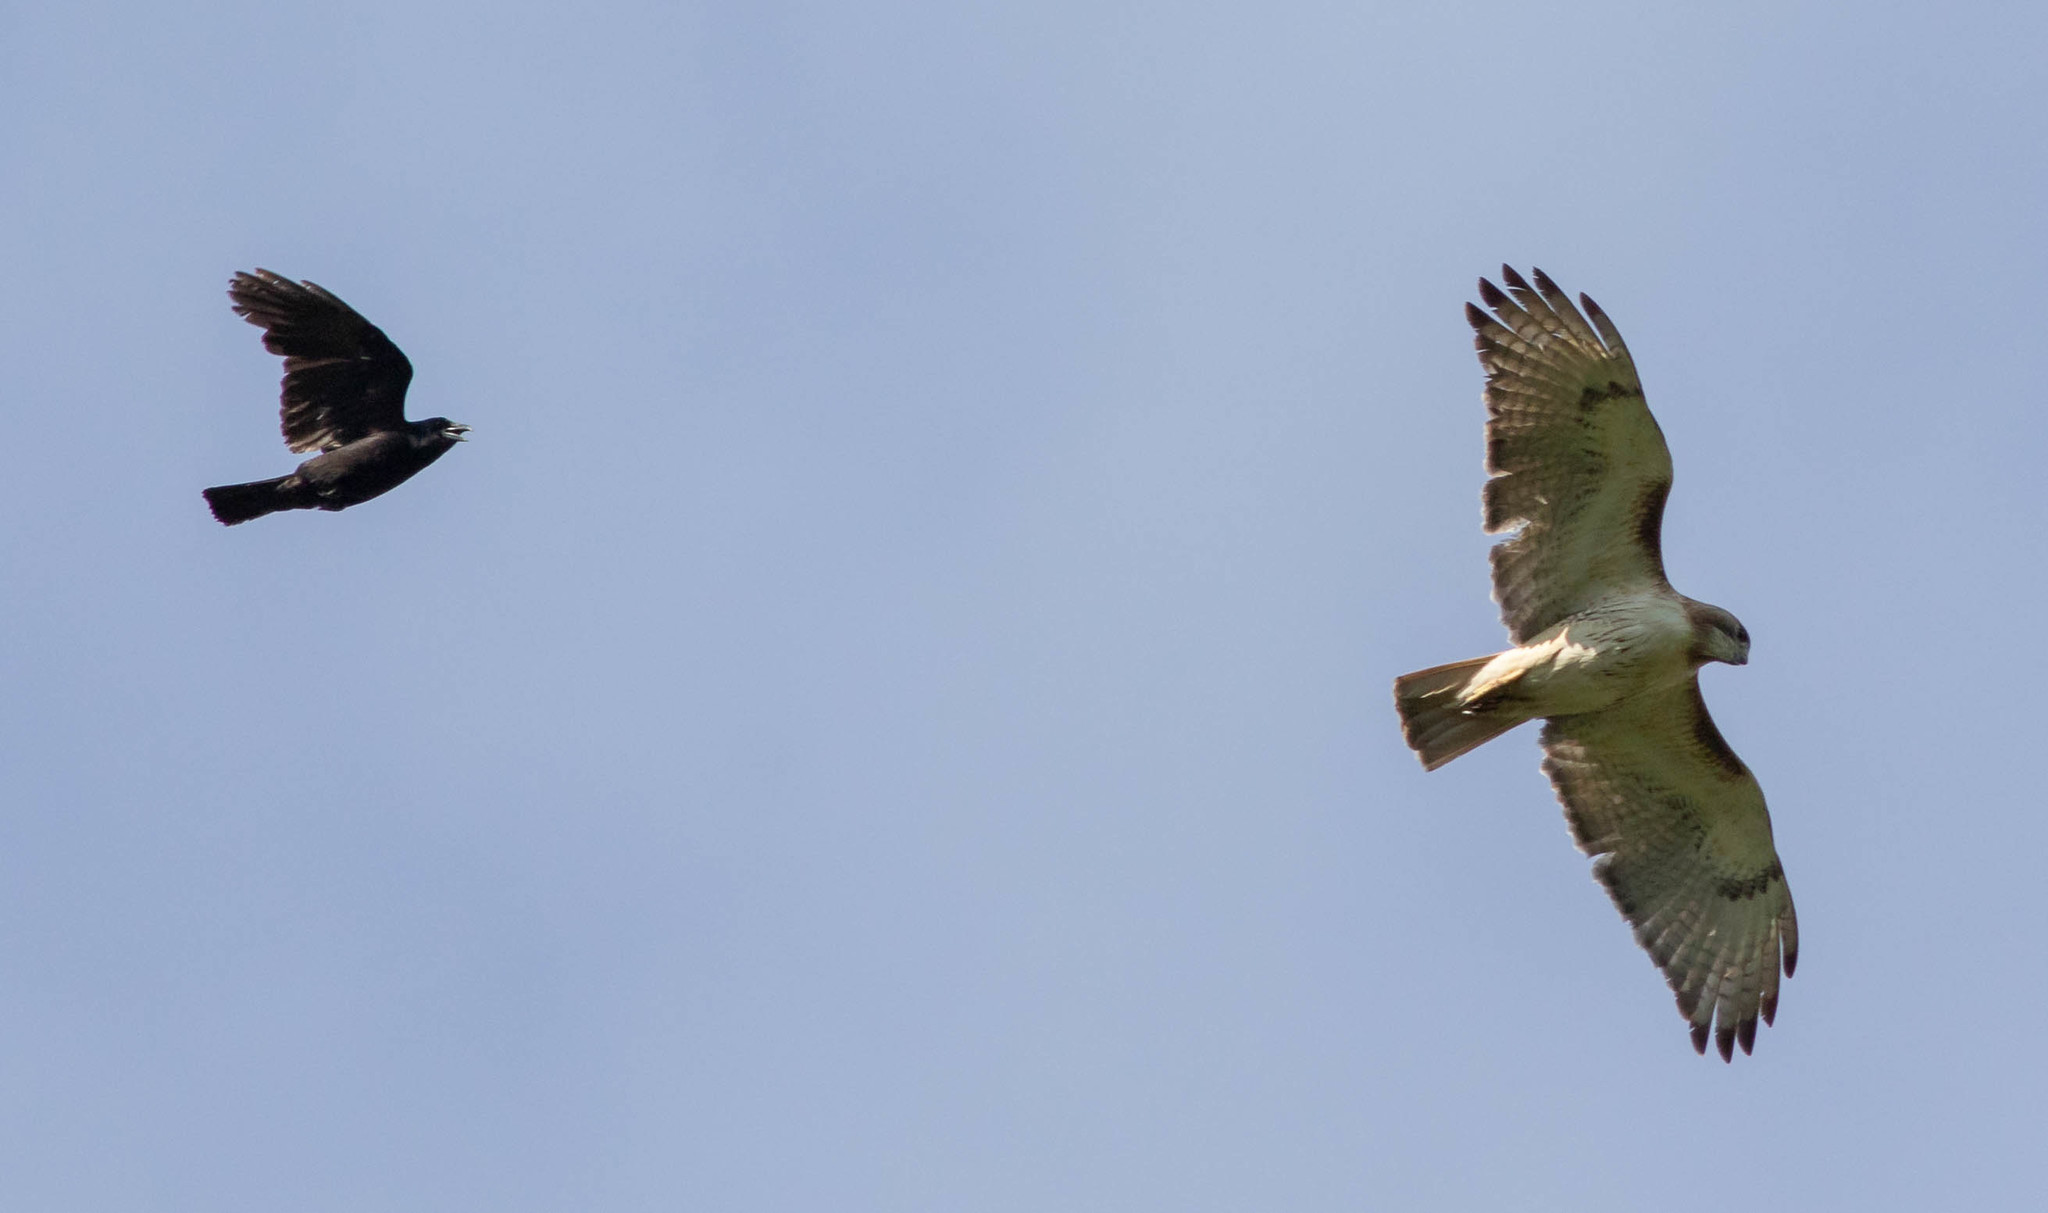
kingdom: Animalia
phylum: Chordata
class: Aves
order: Accipitriformes
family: Accipitridae
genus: Buteo
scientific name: Buteo jamaicensis
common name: Red-tailed hawk
